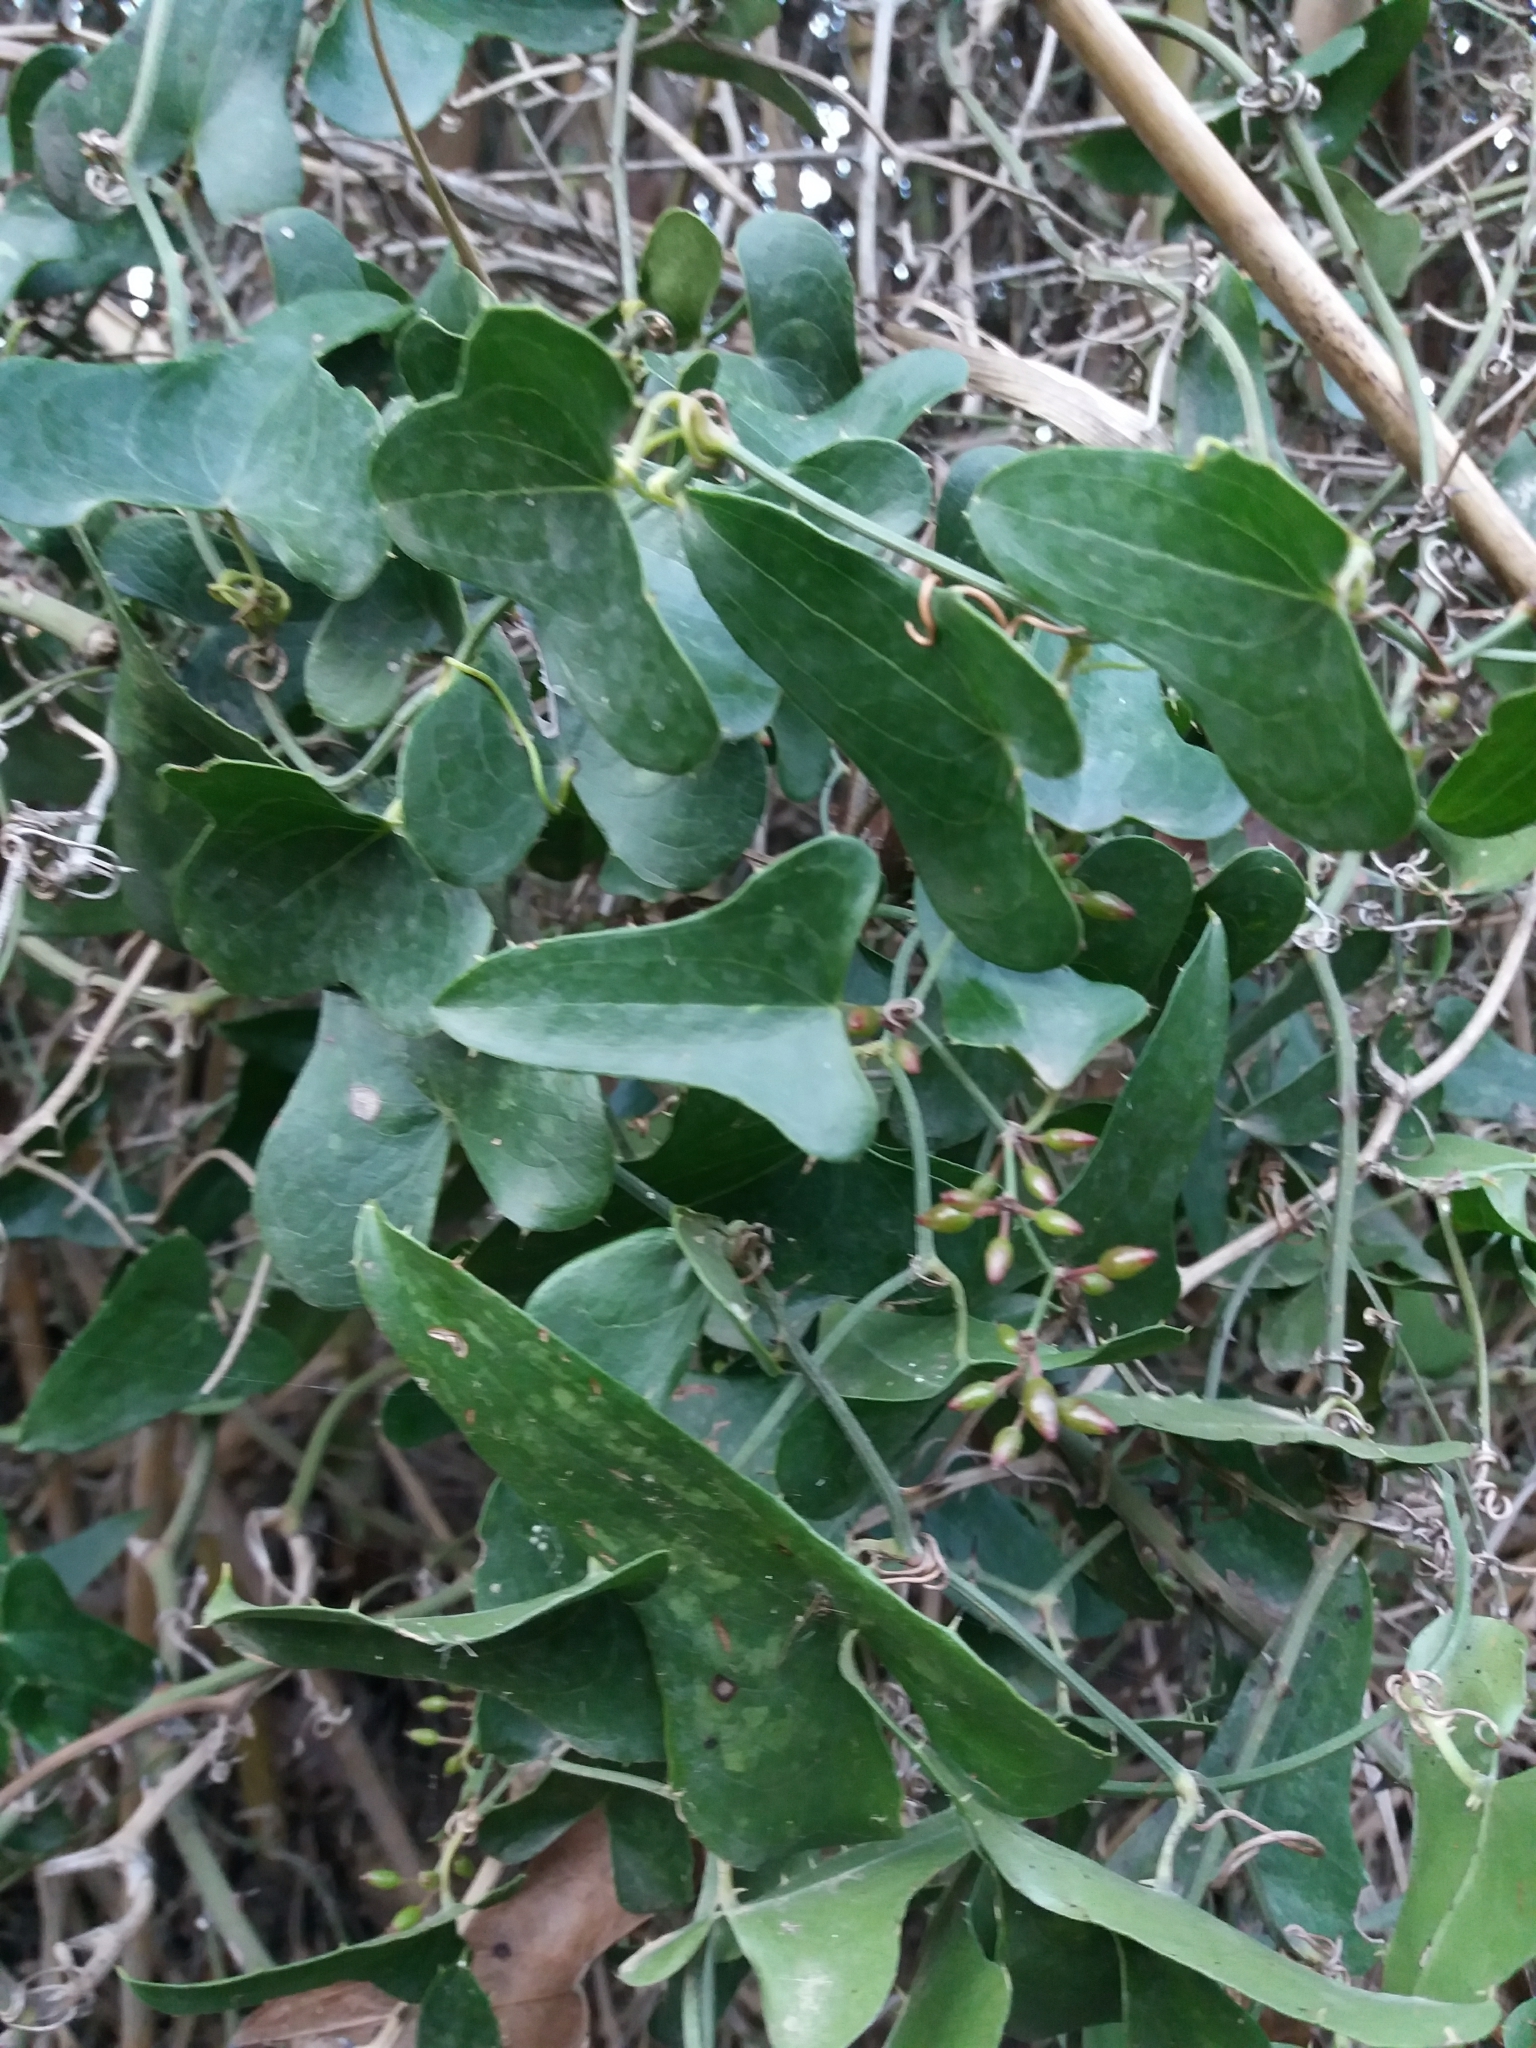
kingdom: Plantae
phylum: Tracheophyta
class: Liliopsida
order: Liliales
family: Smilacaceae
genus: Smilax
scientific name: Smilax aspera
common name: Common smilax
